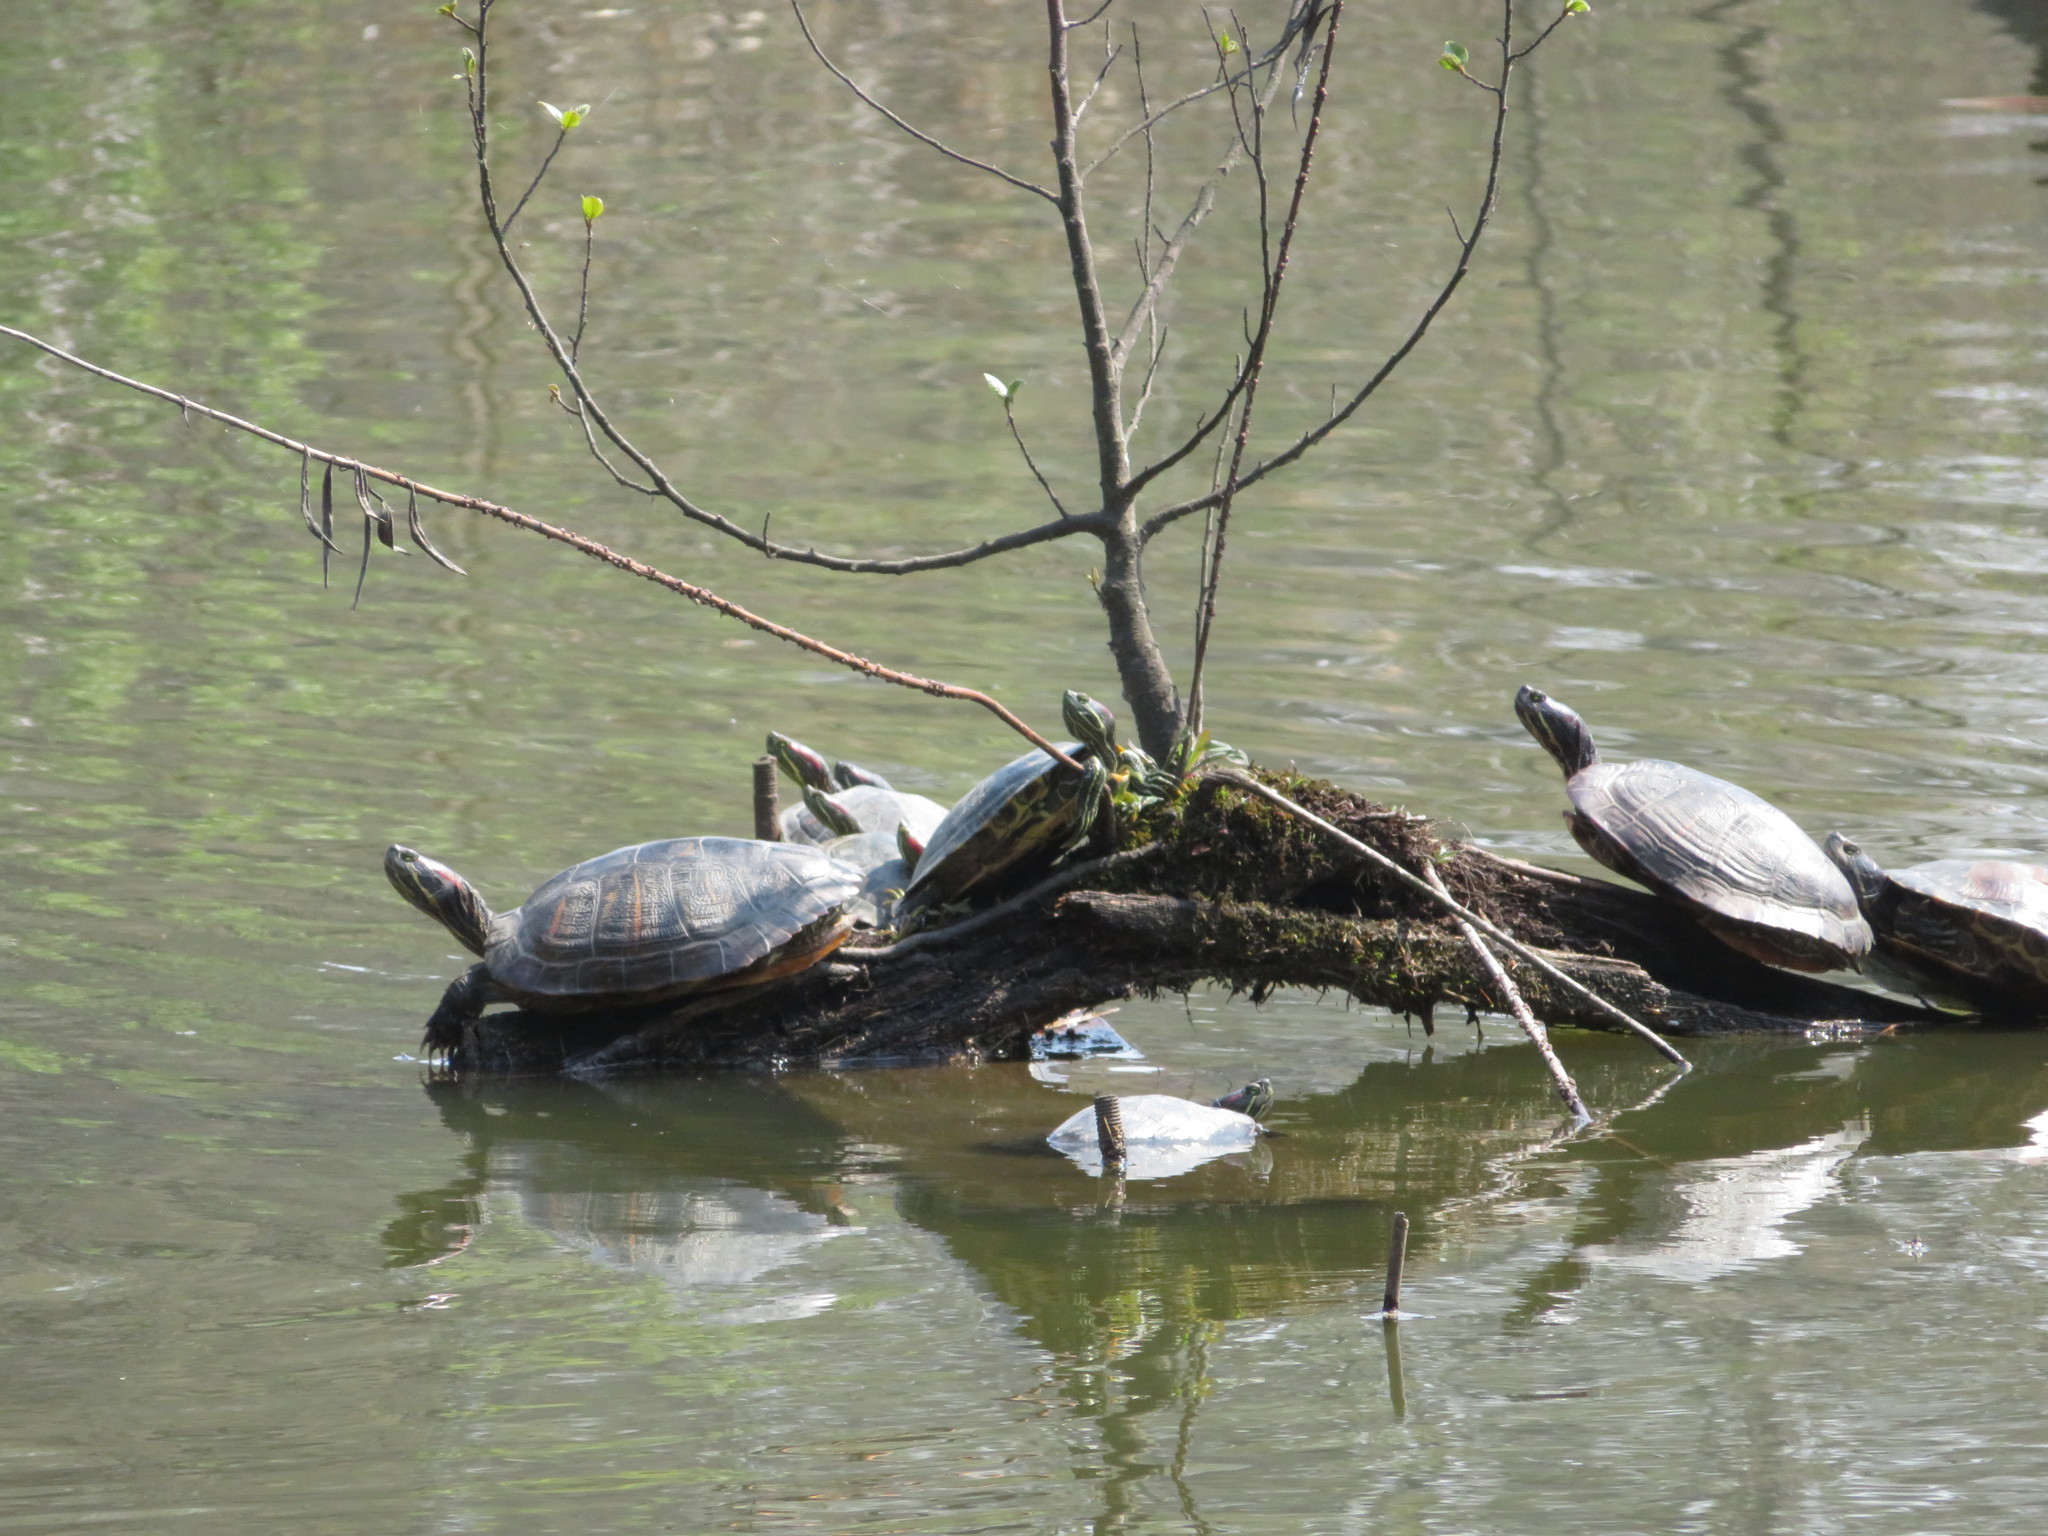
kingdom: Animalia
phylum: Chordata
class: Testudines
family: Emydidae
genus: Trachemys
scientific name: Trachemys scripta
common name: Slider
